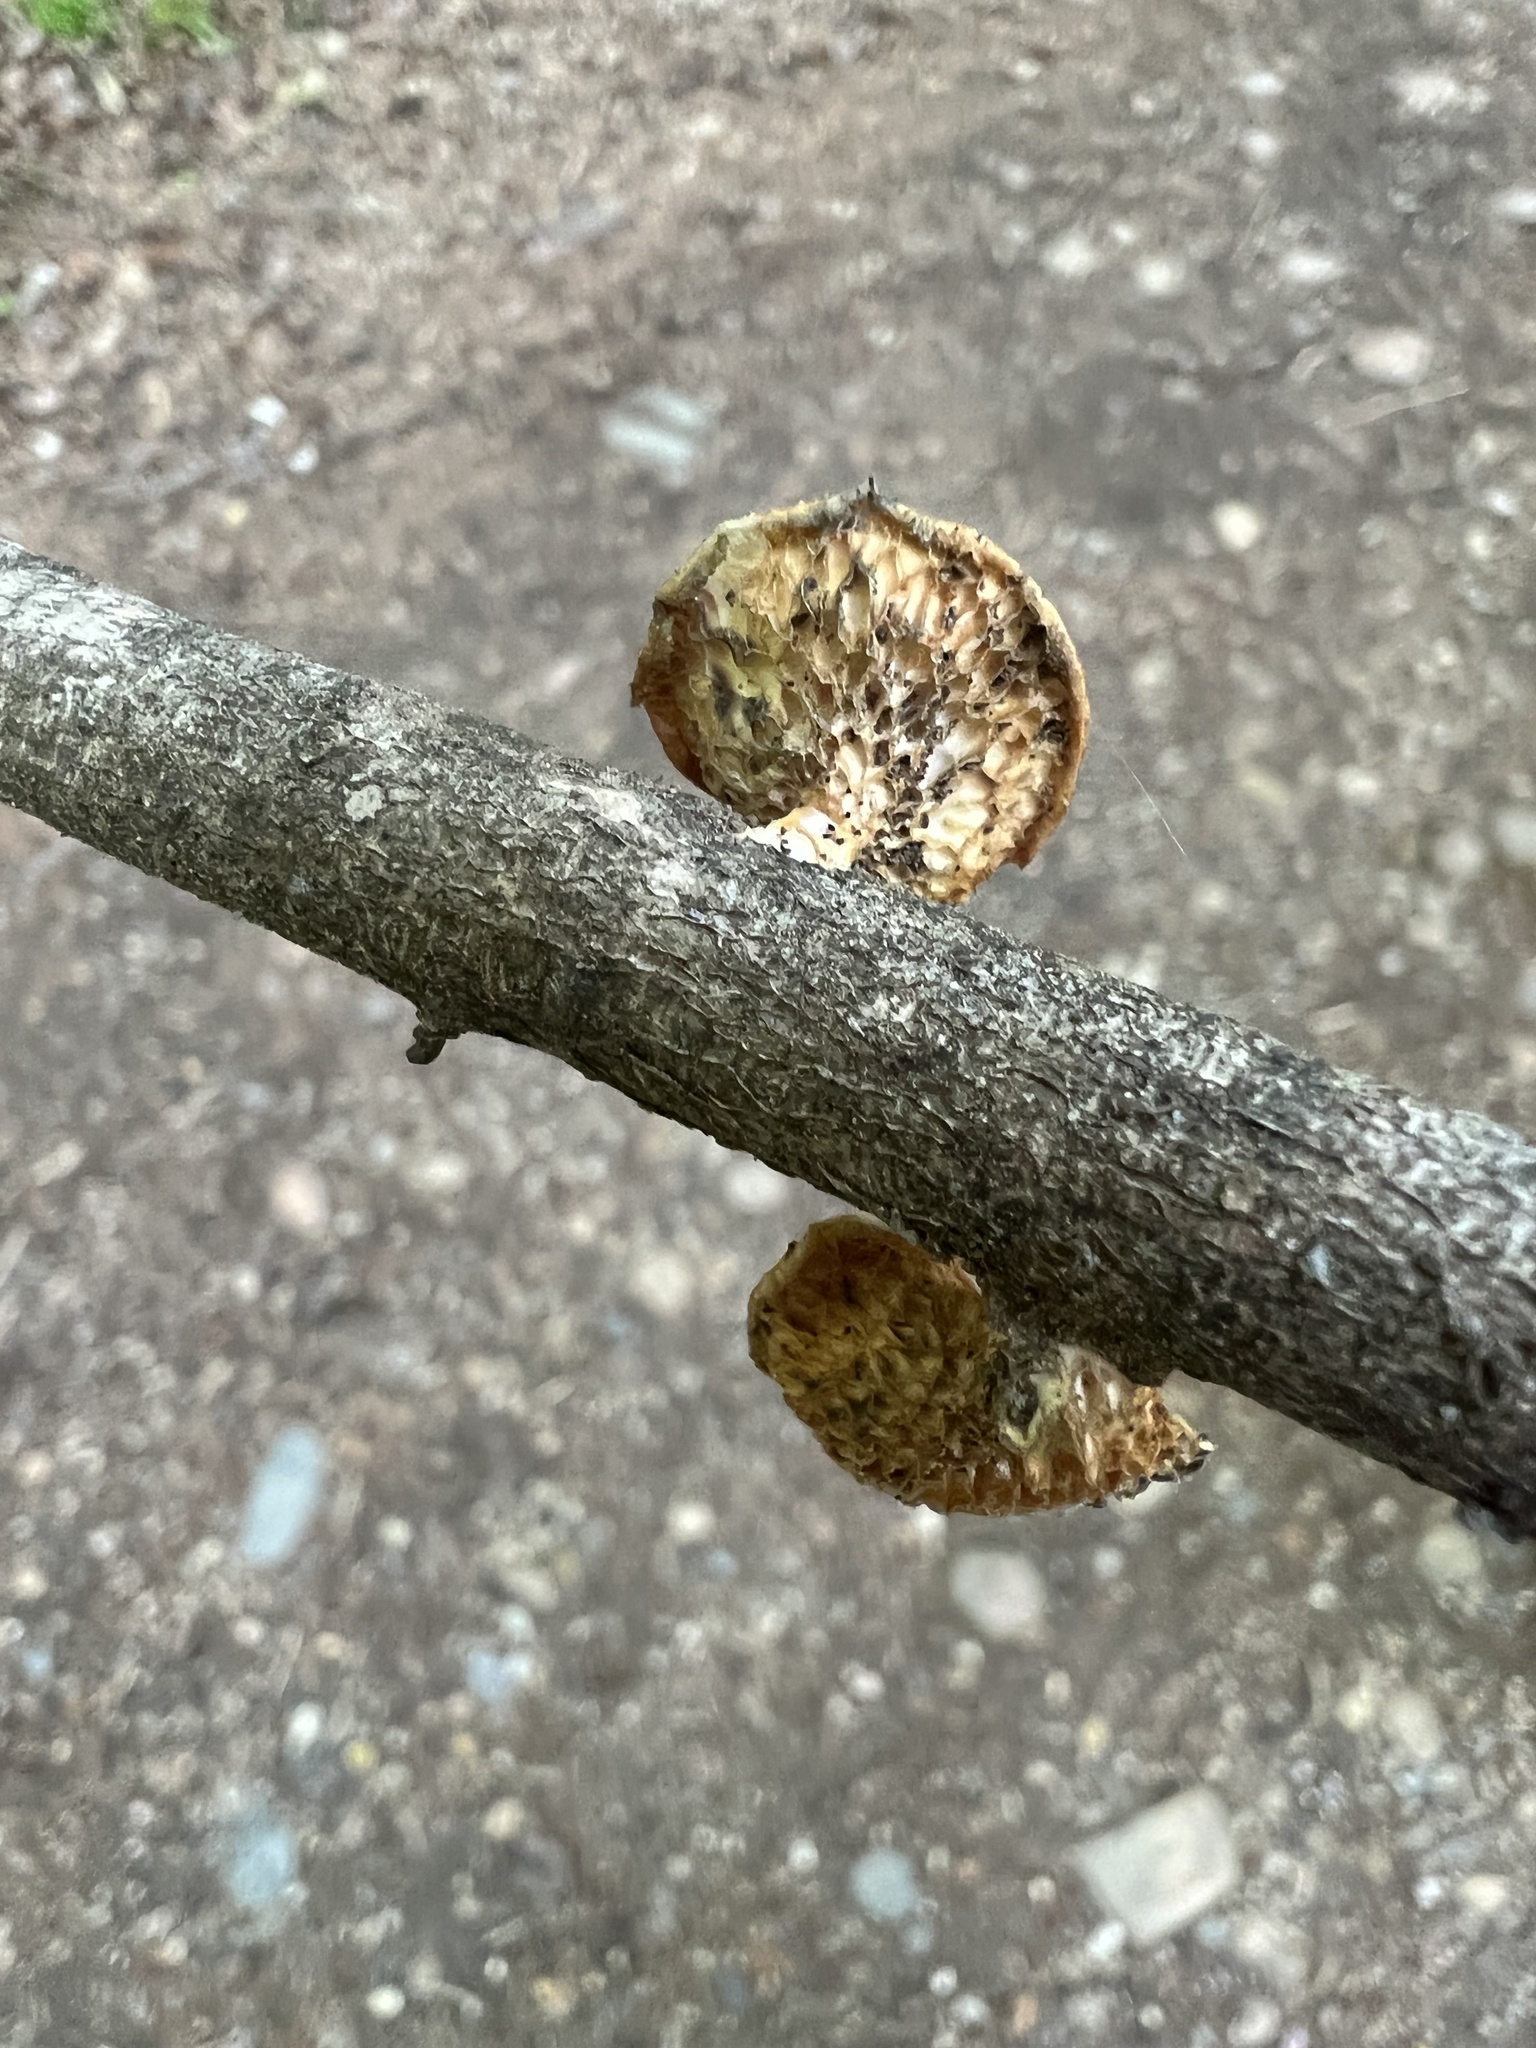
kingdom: Fungi
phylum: Basidiomycota
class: Agaricomycetes
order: Polyporales
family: Polyporaceae
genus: Neofavolus
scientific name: Neofavolus americanus
